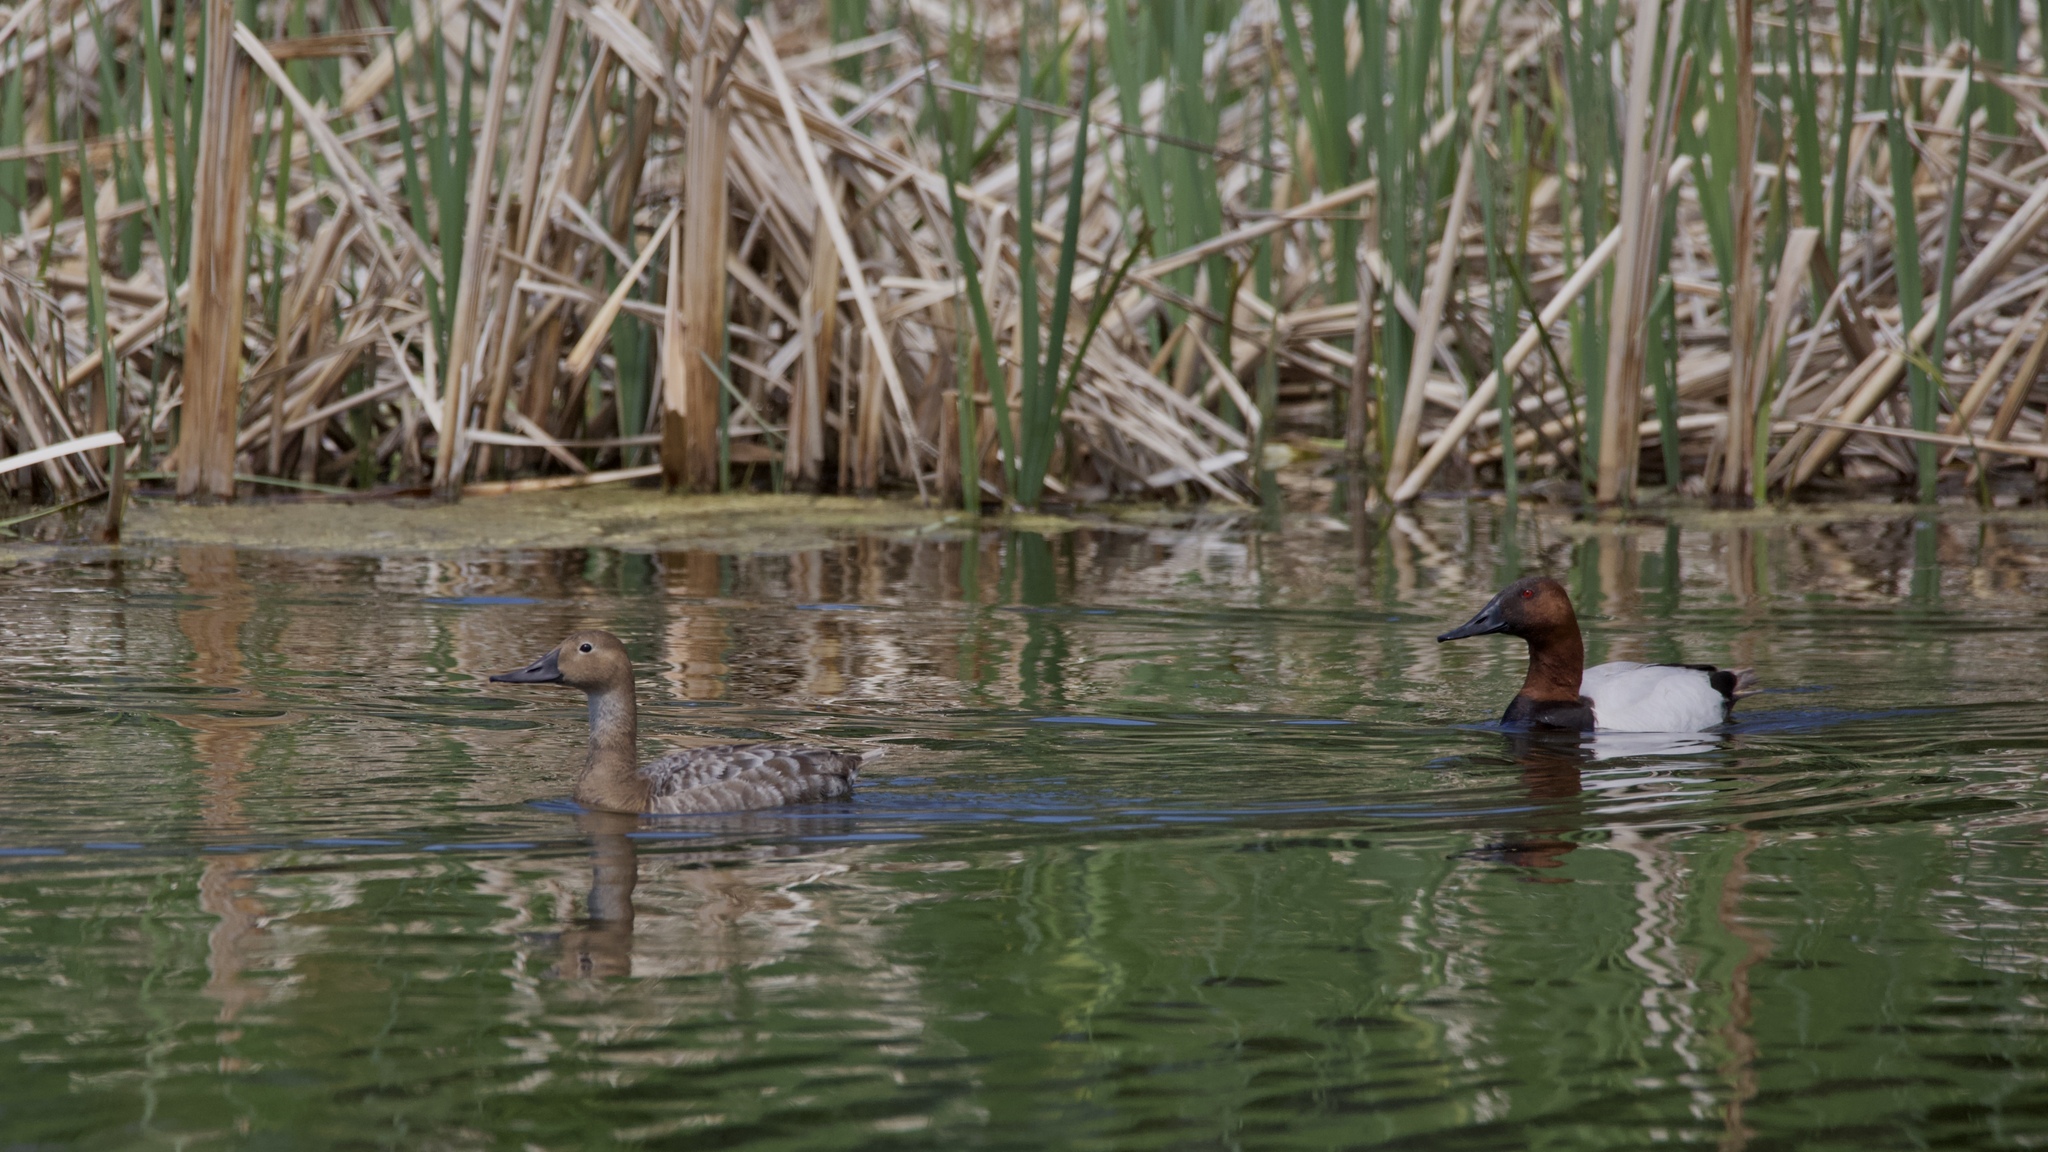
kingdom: Animalia
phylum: Chordata
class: Aves
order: Anseriformes
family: Anatidae
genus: Aythya
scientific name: Aythya valisineria
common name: Canvasback
